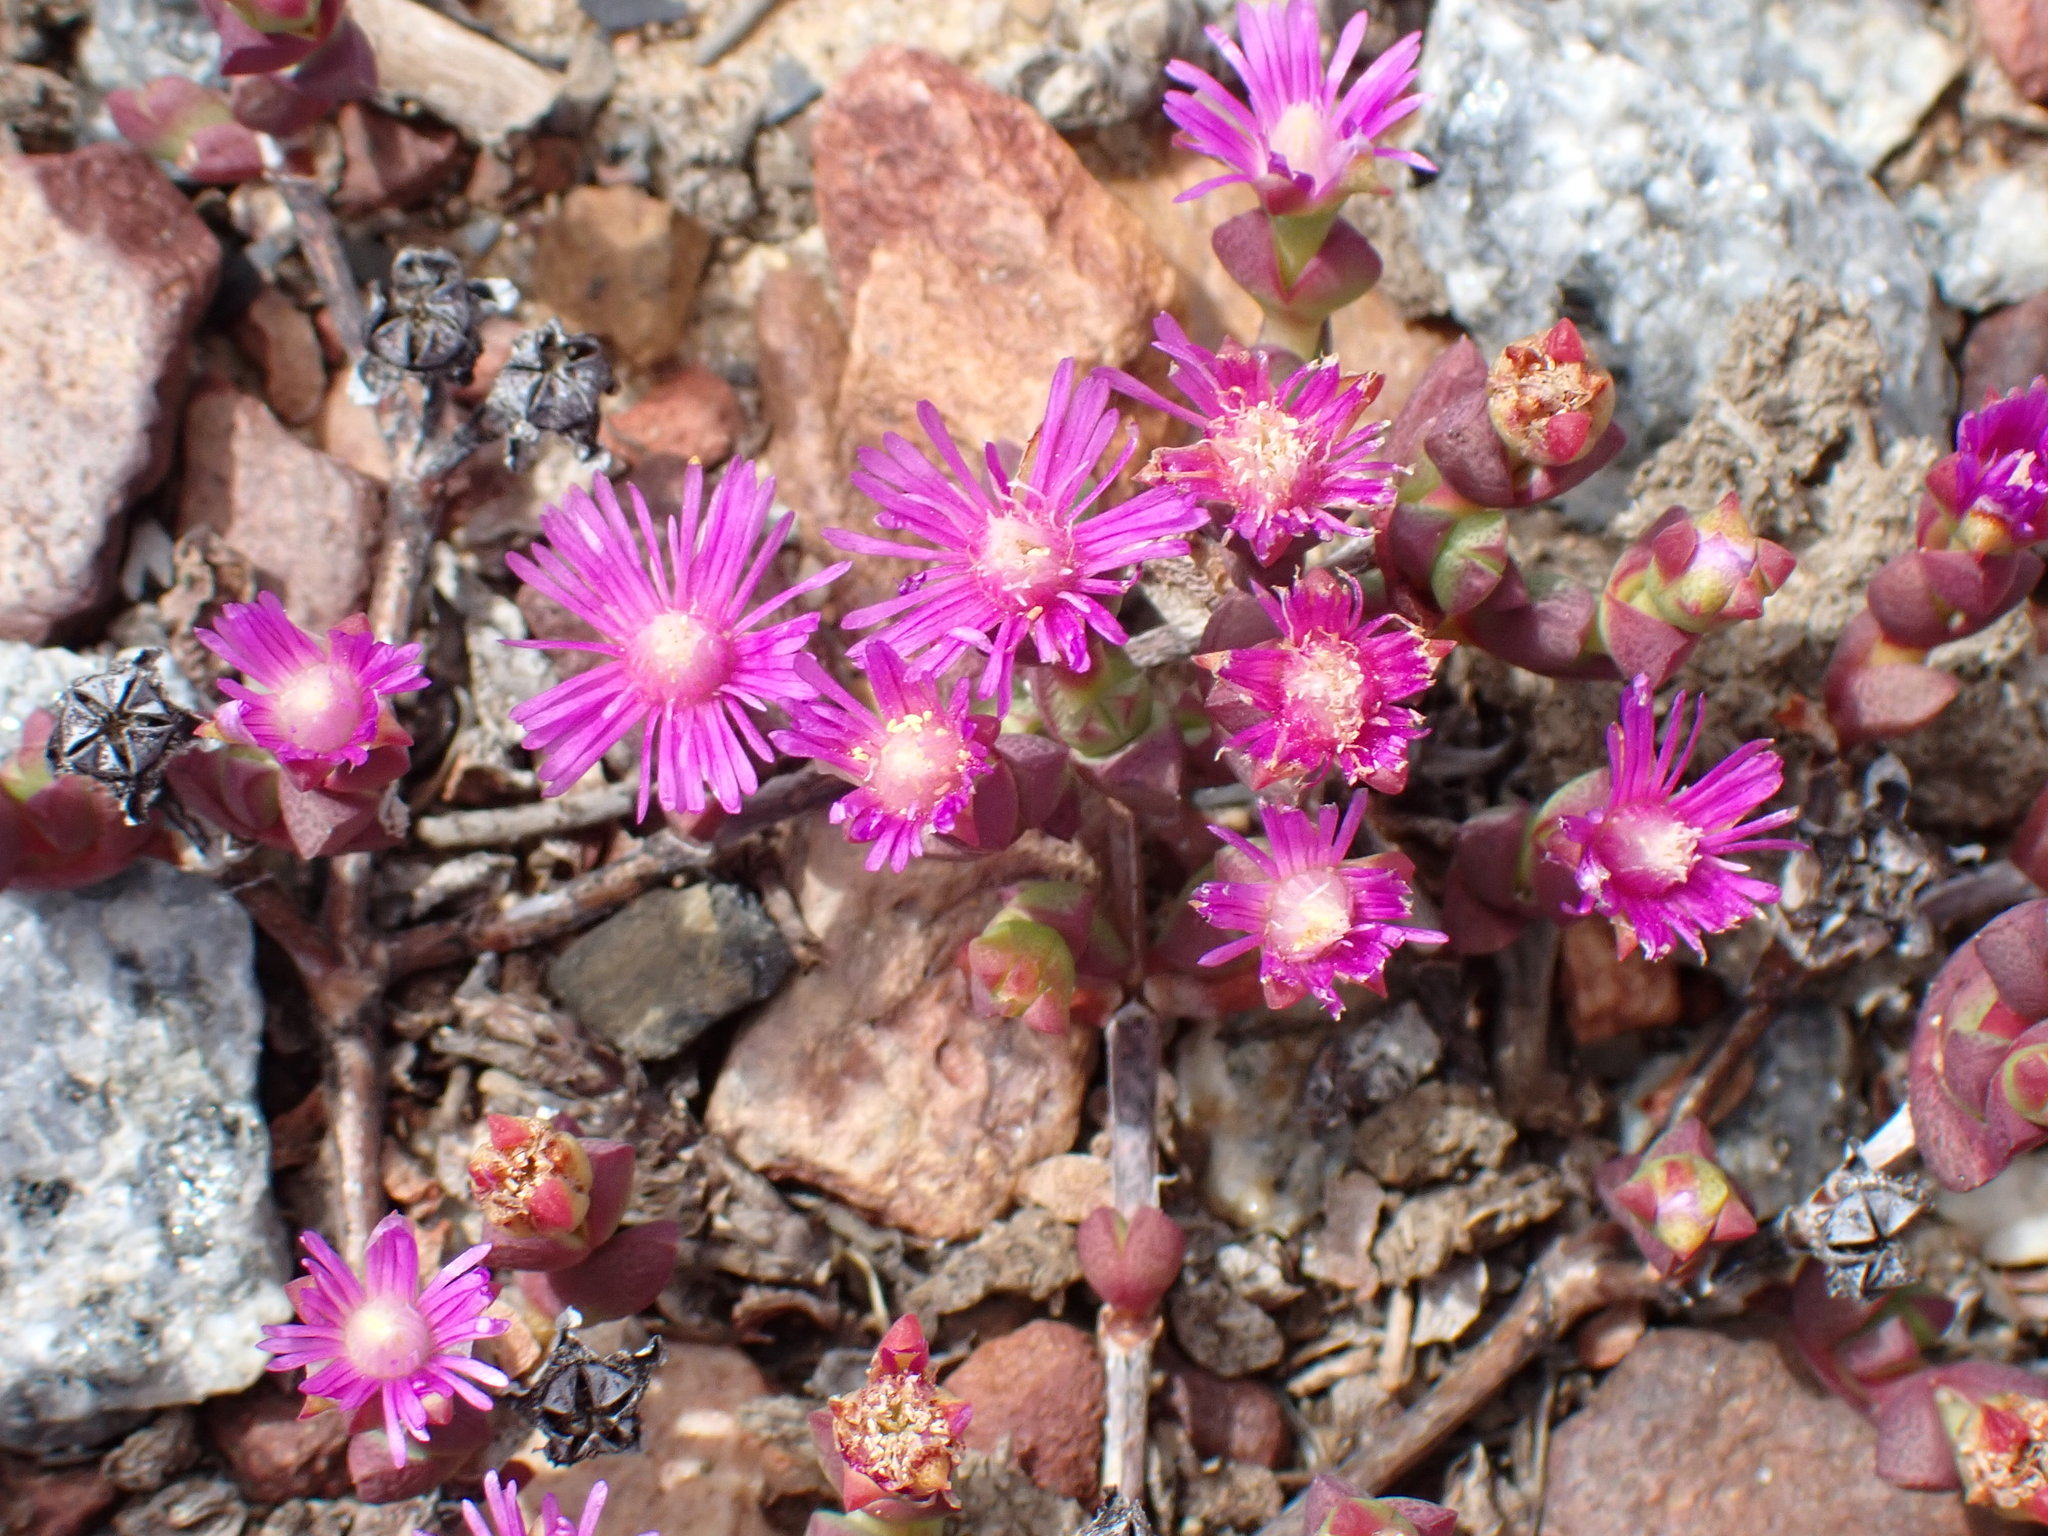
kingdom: Plantae
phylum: Tracheophyta
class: Magnoliopsida
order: Caryophyllales
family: Aizoaceae
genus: Ruschia
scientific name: Ruschia staminodiosa
